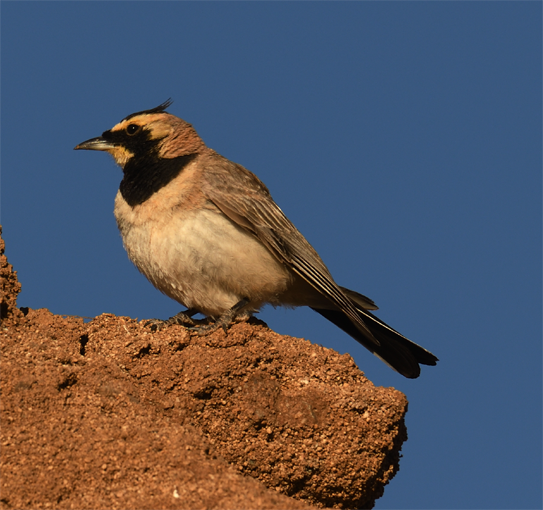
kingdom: Animalia
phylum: Chordata
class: Aves
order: Passeriformes
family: Alaudidae
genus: Eremophila
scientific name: Eremophila alpestris
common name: Horned lark
